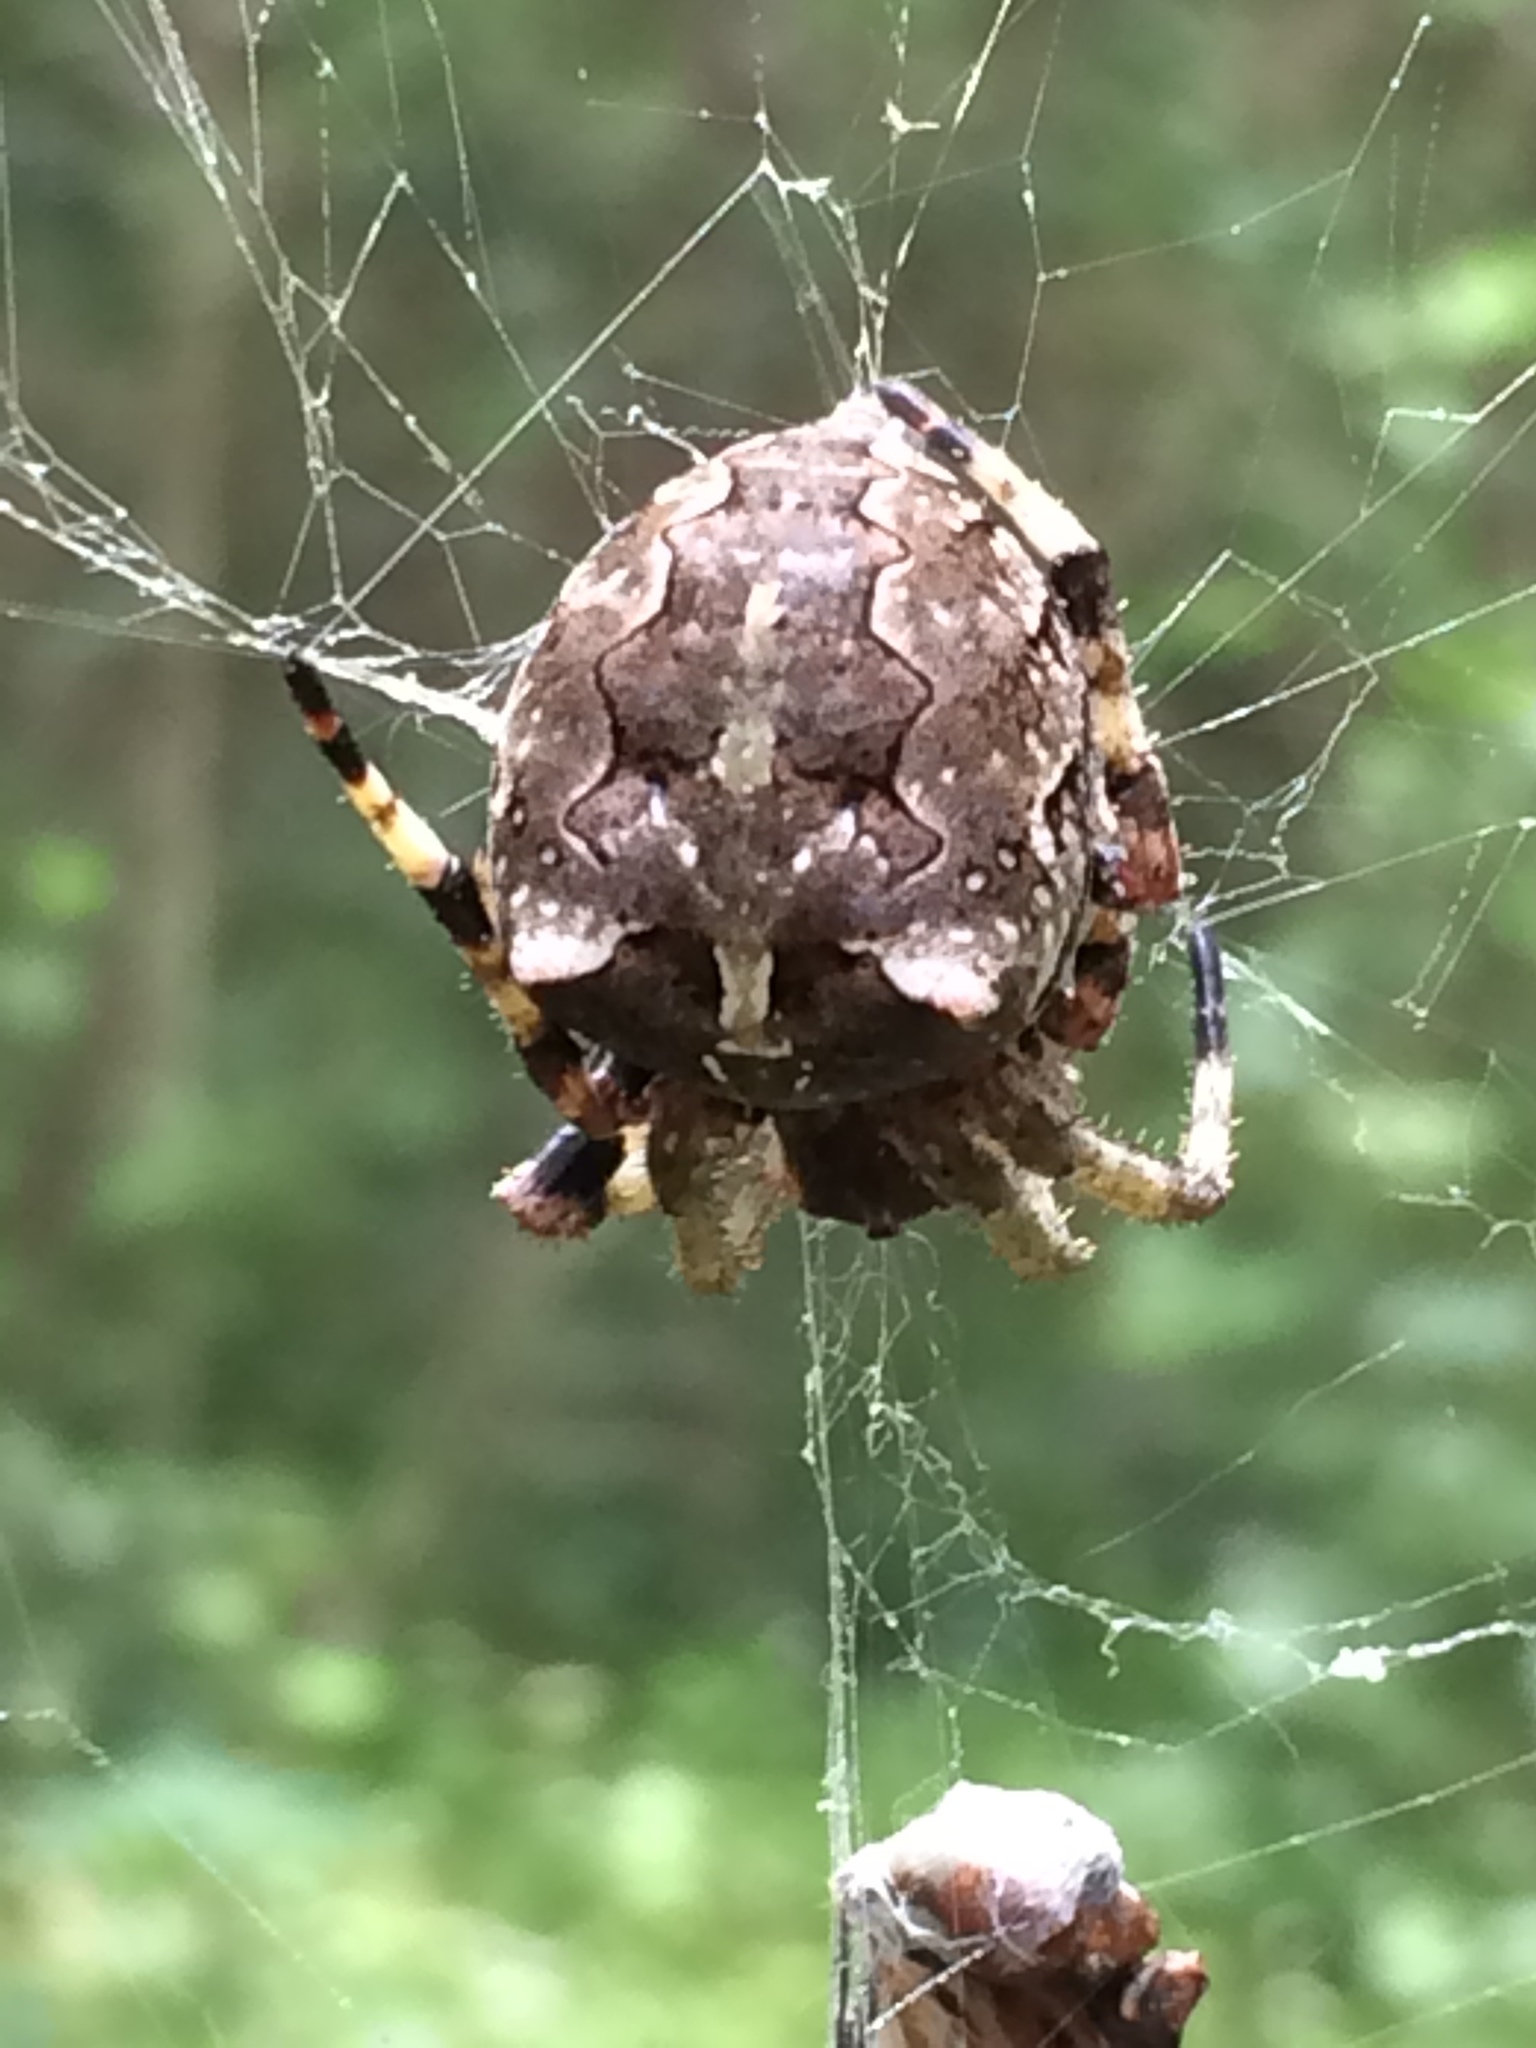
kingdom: Animalia
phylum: Arthropoda
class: Arachnida
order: Araneae
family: Araneidae
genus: Araneus
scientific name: Araneus bicentenarius
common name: Giant lichen orbweaver
